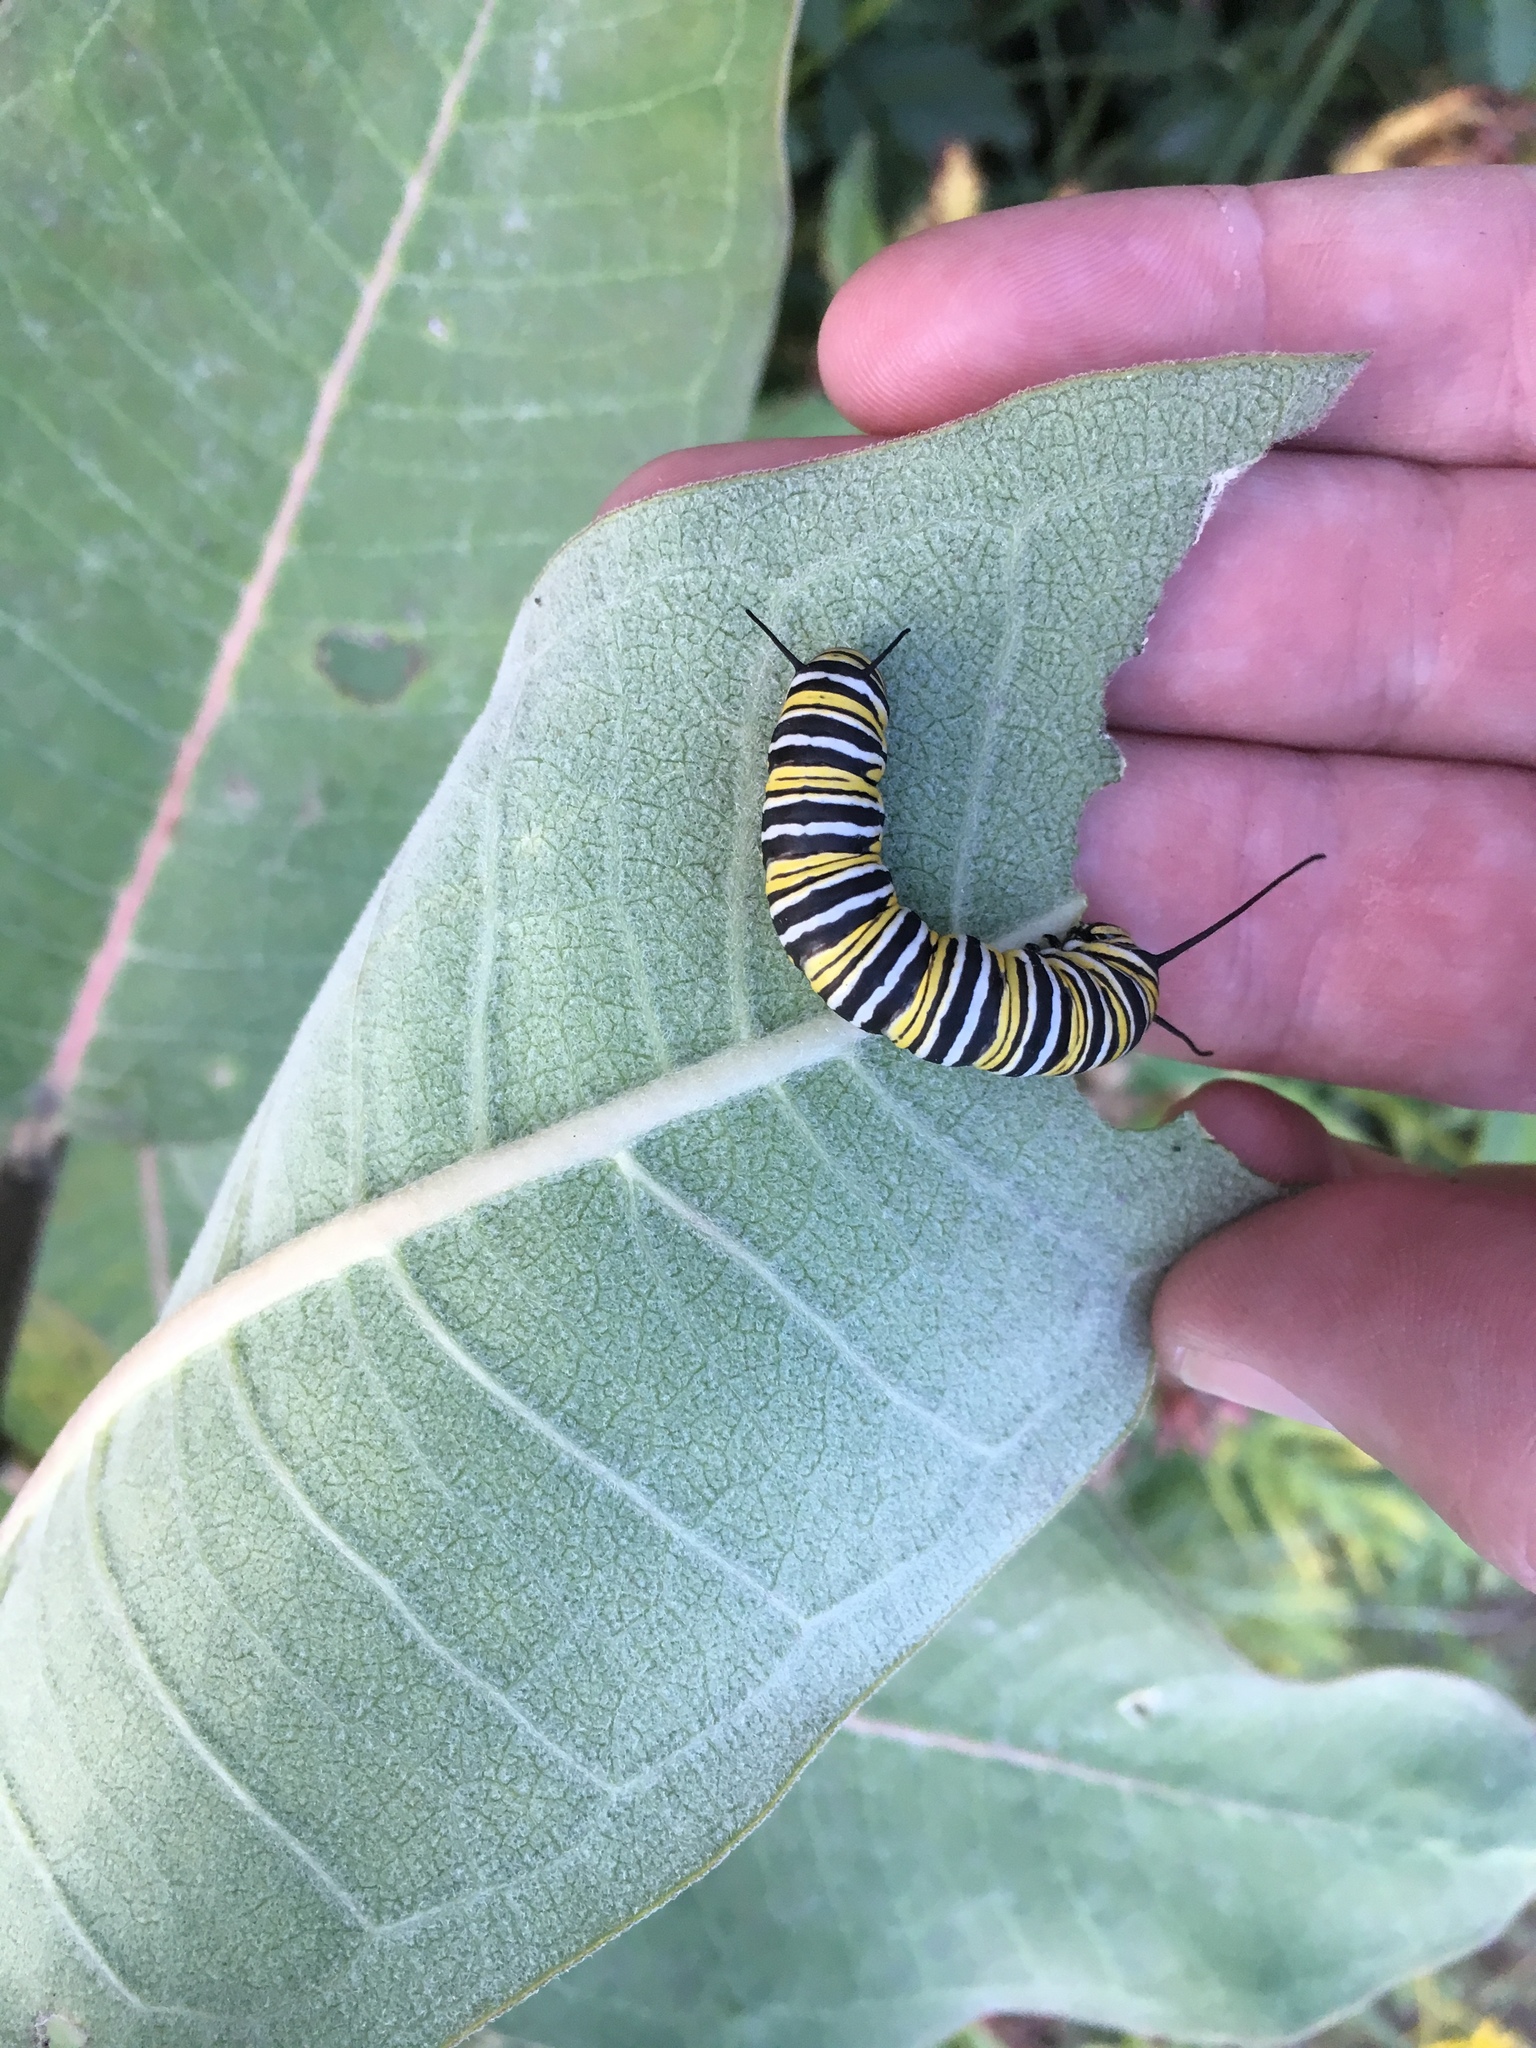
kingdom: Animalia
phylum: Arthropoda
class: Insecta
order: Lepidoptera
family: Nymphalidae
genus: Danaus
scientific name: Danaus plexippus
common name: Monarch
